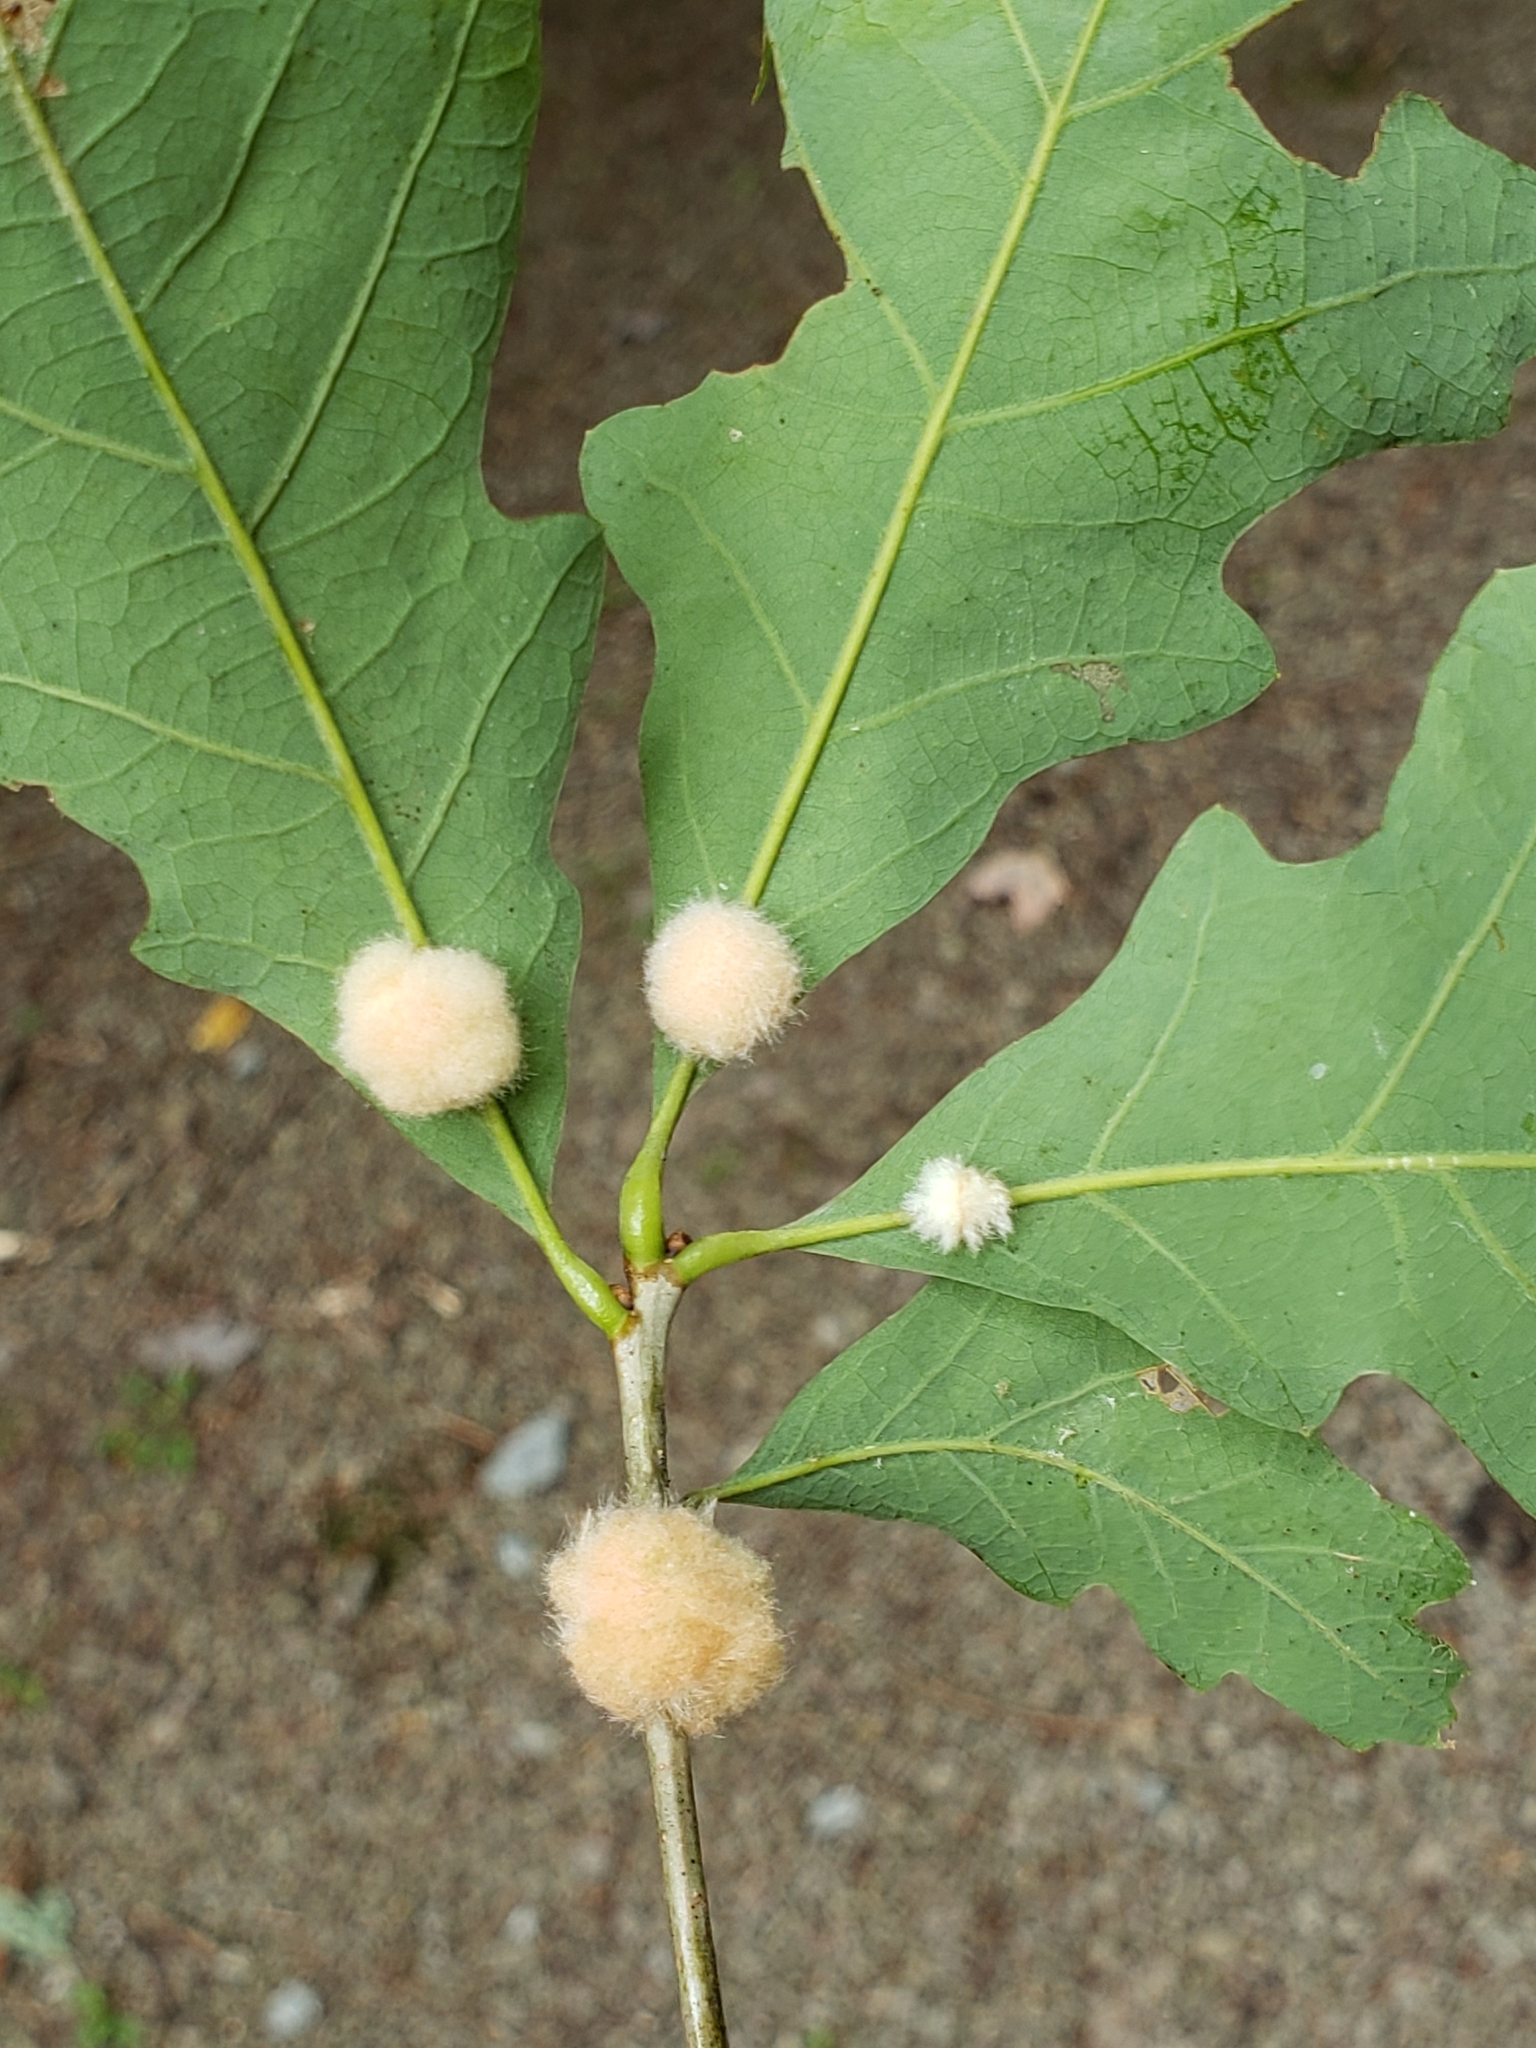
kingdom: Animalia
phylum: Arthropoda
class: Insecta
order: Hymenoptera
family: Cynipidae
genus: Andricus
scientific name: Andricus quercusflocci
